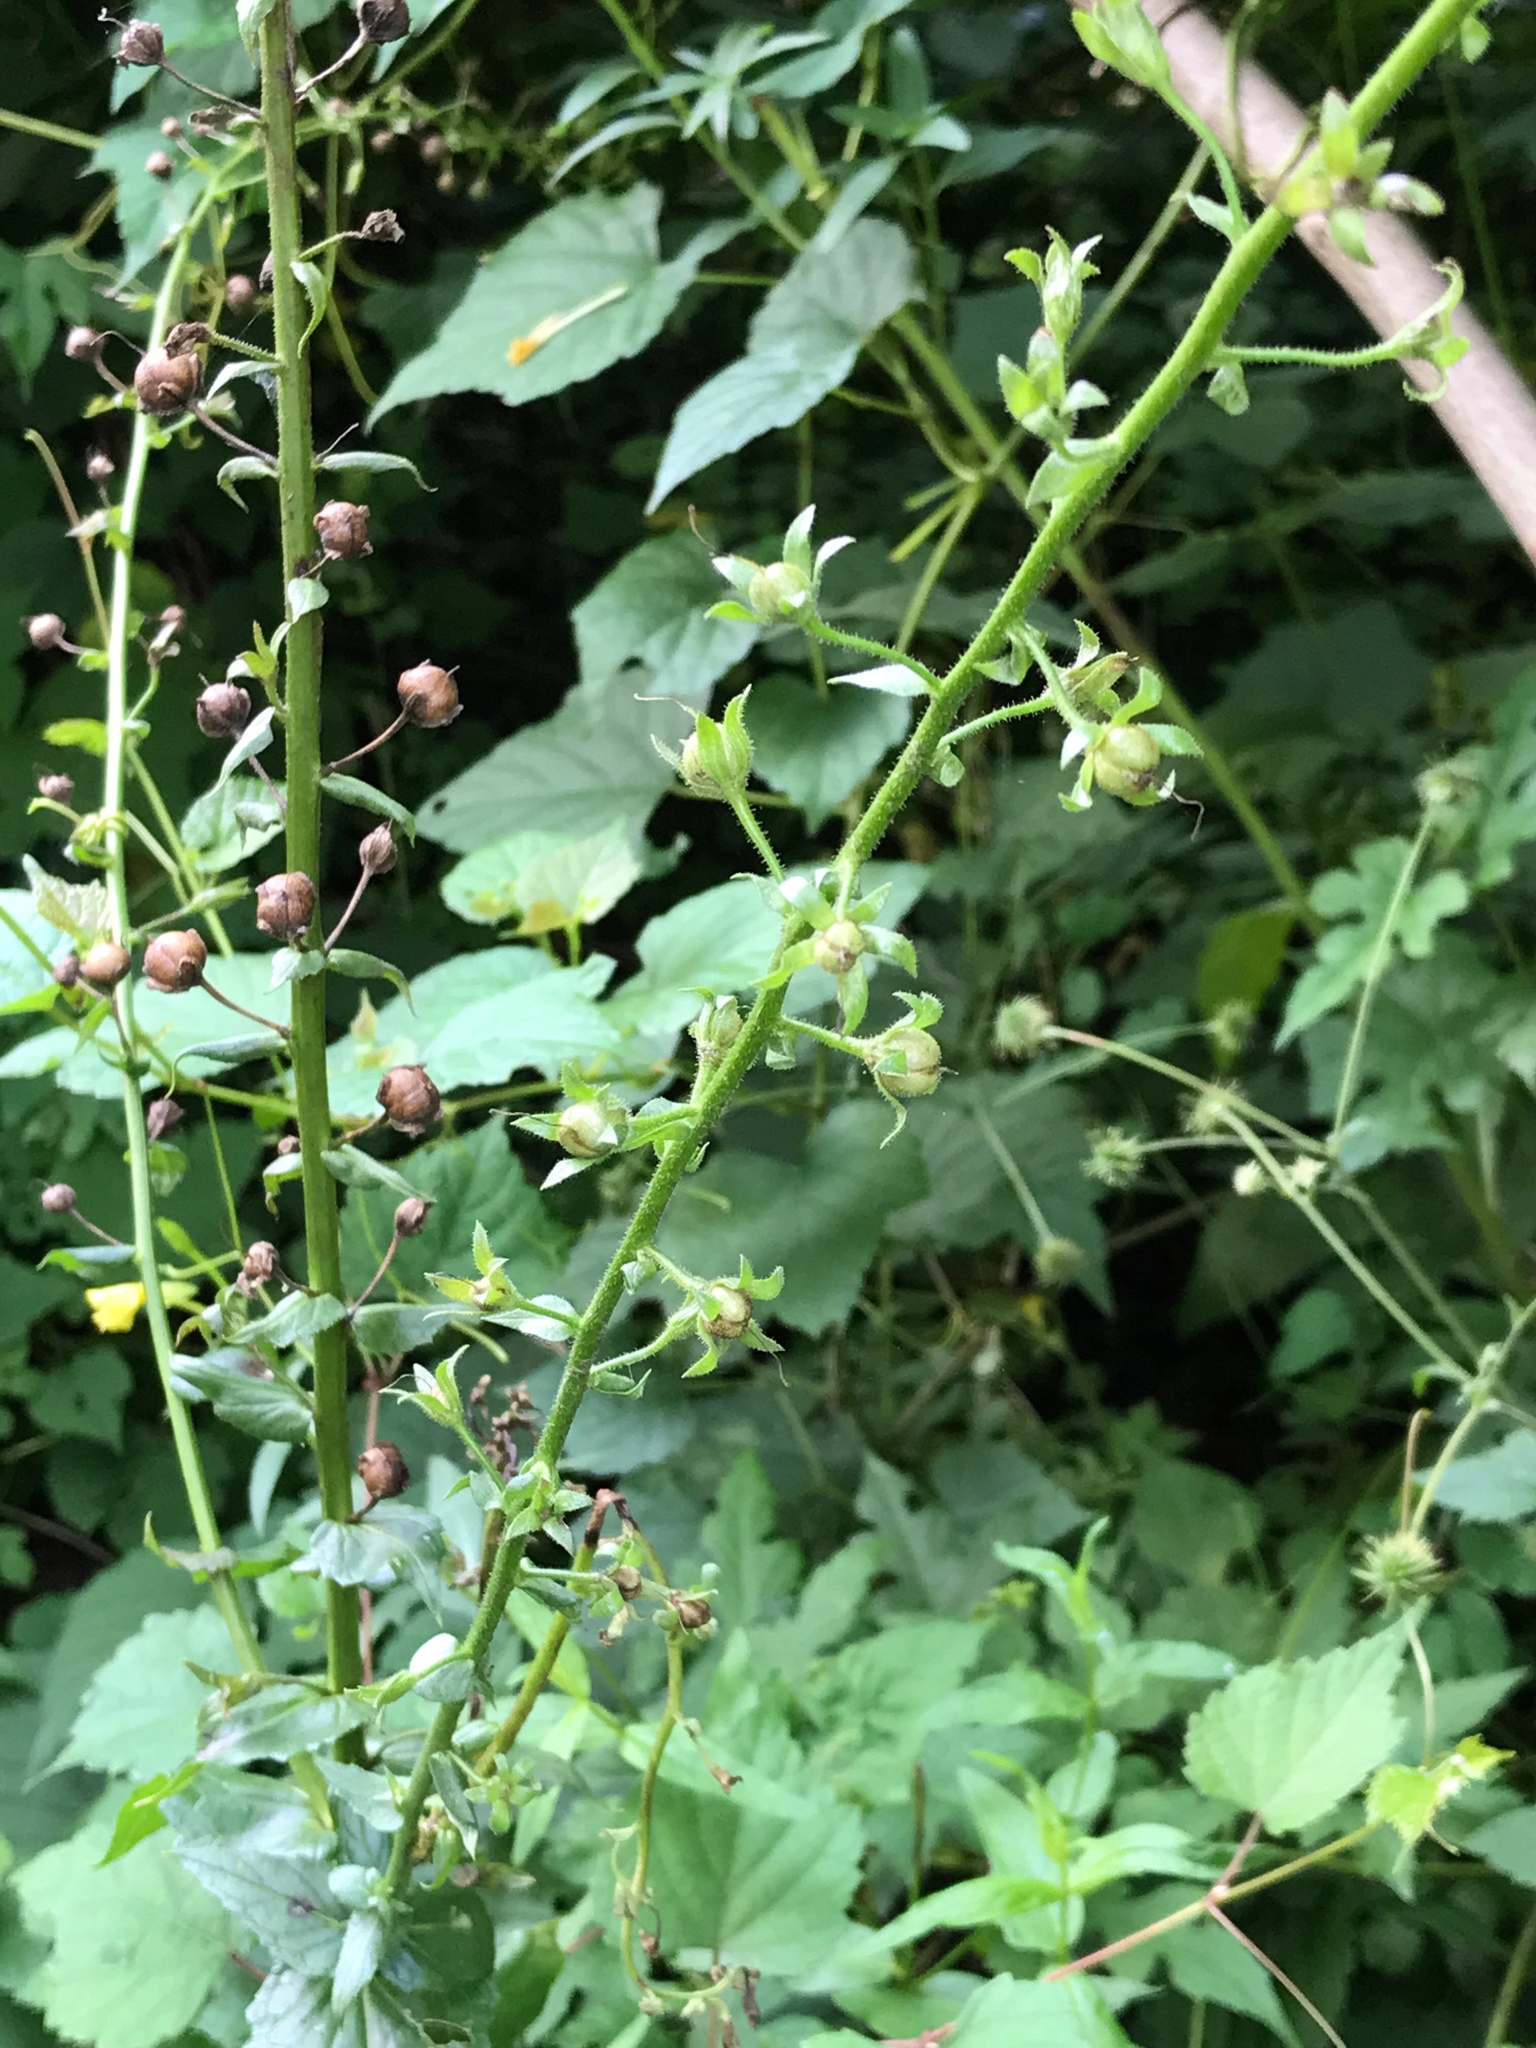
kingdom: Plantae
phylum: Tracheophyta
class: Magnoliopsida
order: Lamiales
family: Scrophulariaceae
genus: Verbascum
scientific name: Verbascum blattaria
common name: Moth mullein
